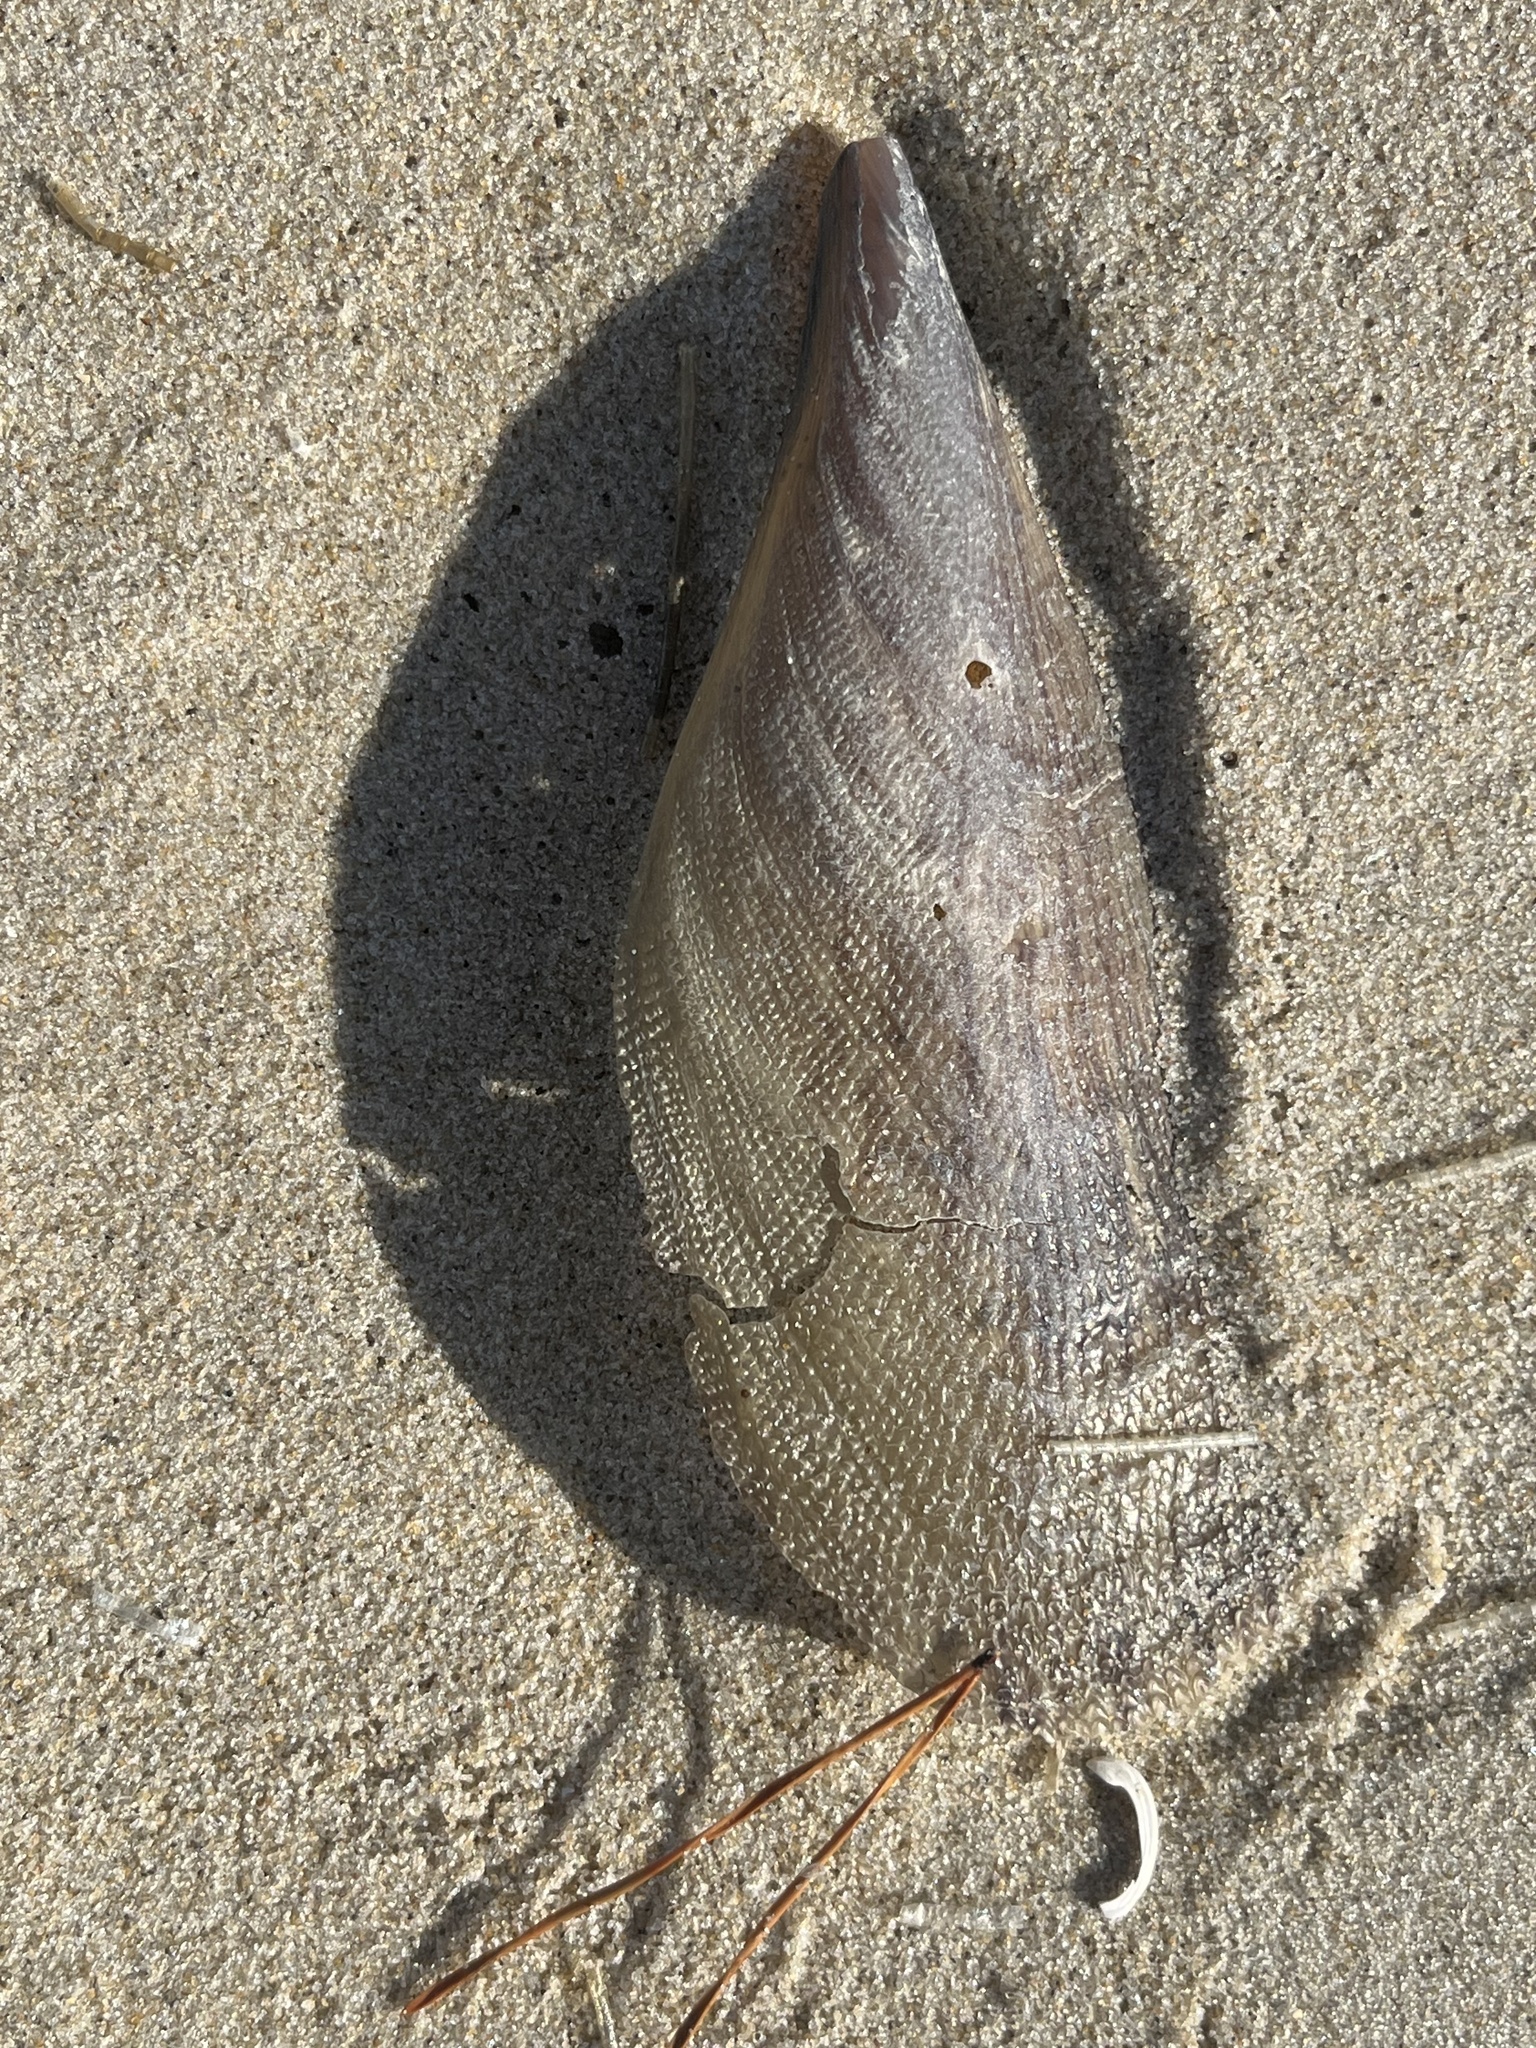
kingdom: Animalia
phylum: Mollusca
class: Bivalvia
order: Ostreida
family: Pinnidae
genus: Atrina
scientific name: Atrina serrata
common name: Saw-toothed penshell
